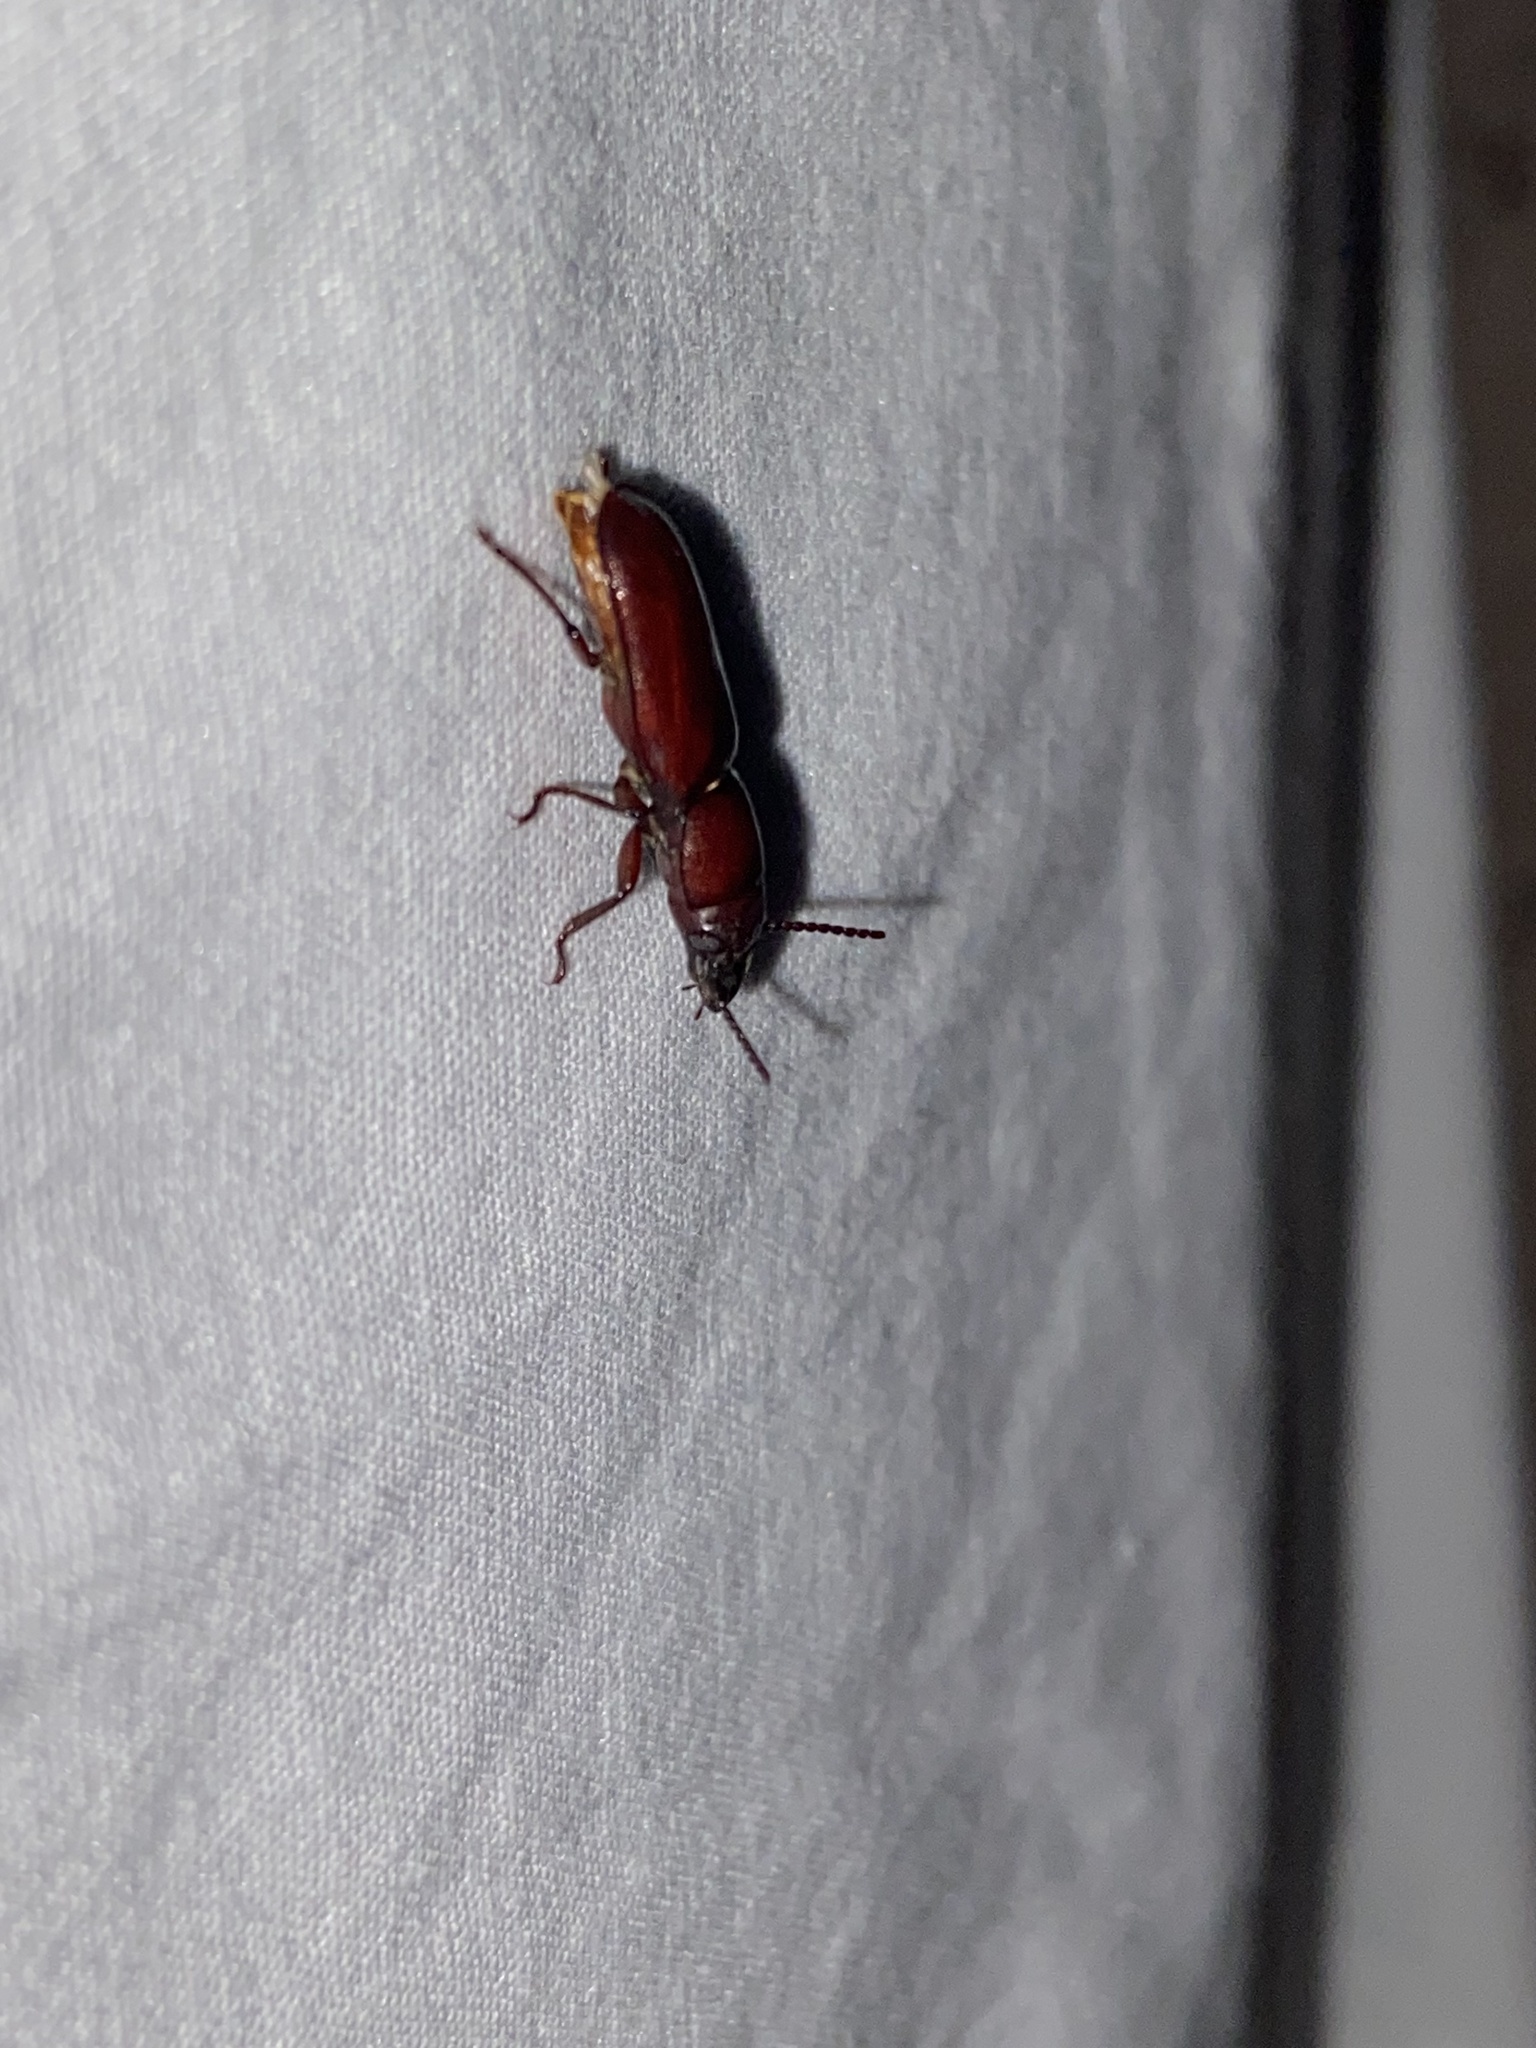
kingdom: Animalia
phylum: Arthropoda
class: Insecta
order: Coleoptera
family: Cerambycidae
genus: Neandra
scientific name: Neandra brunnea
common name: Pole borer
